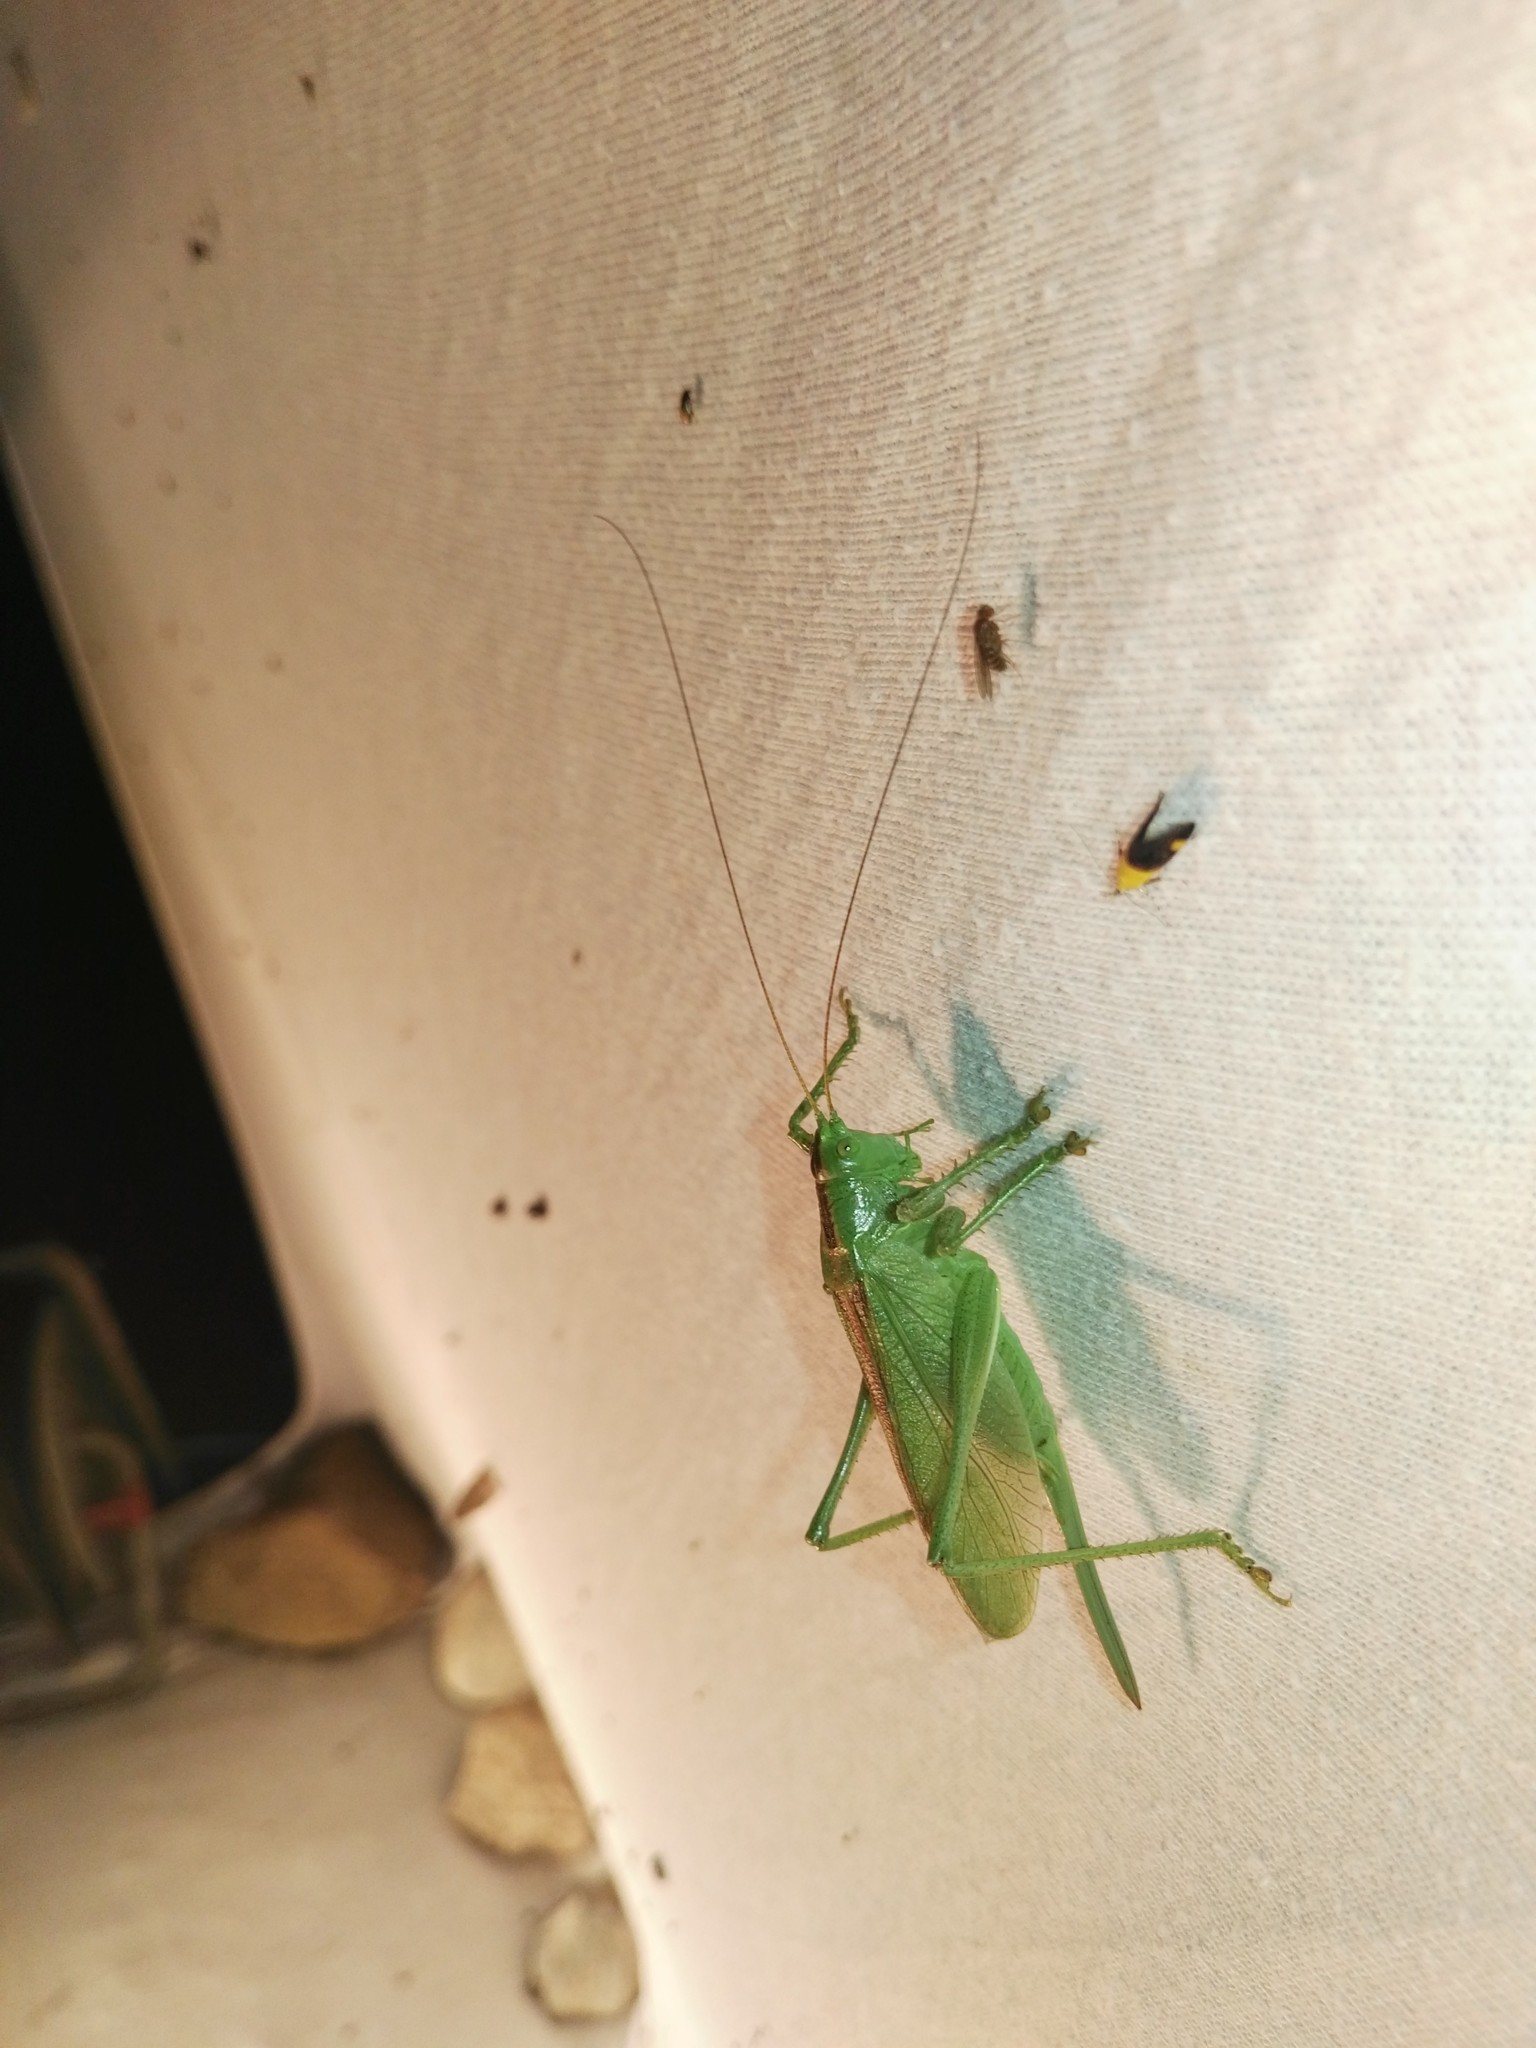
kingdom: Animalia
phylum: Arthropoda
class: Insecta
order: Orthoptera
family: Tettigoniidae
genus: Tettigonia
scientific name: Tettigonia cantans
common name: Upland green bush-cricket
